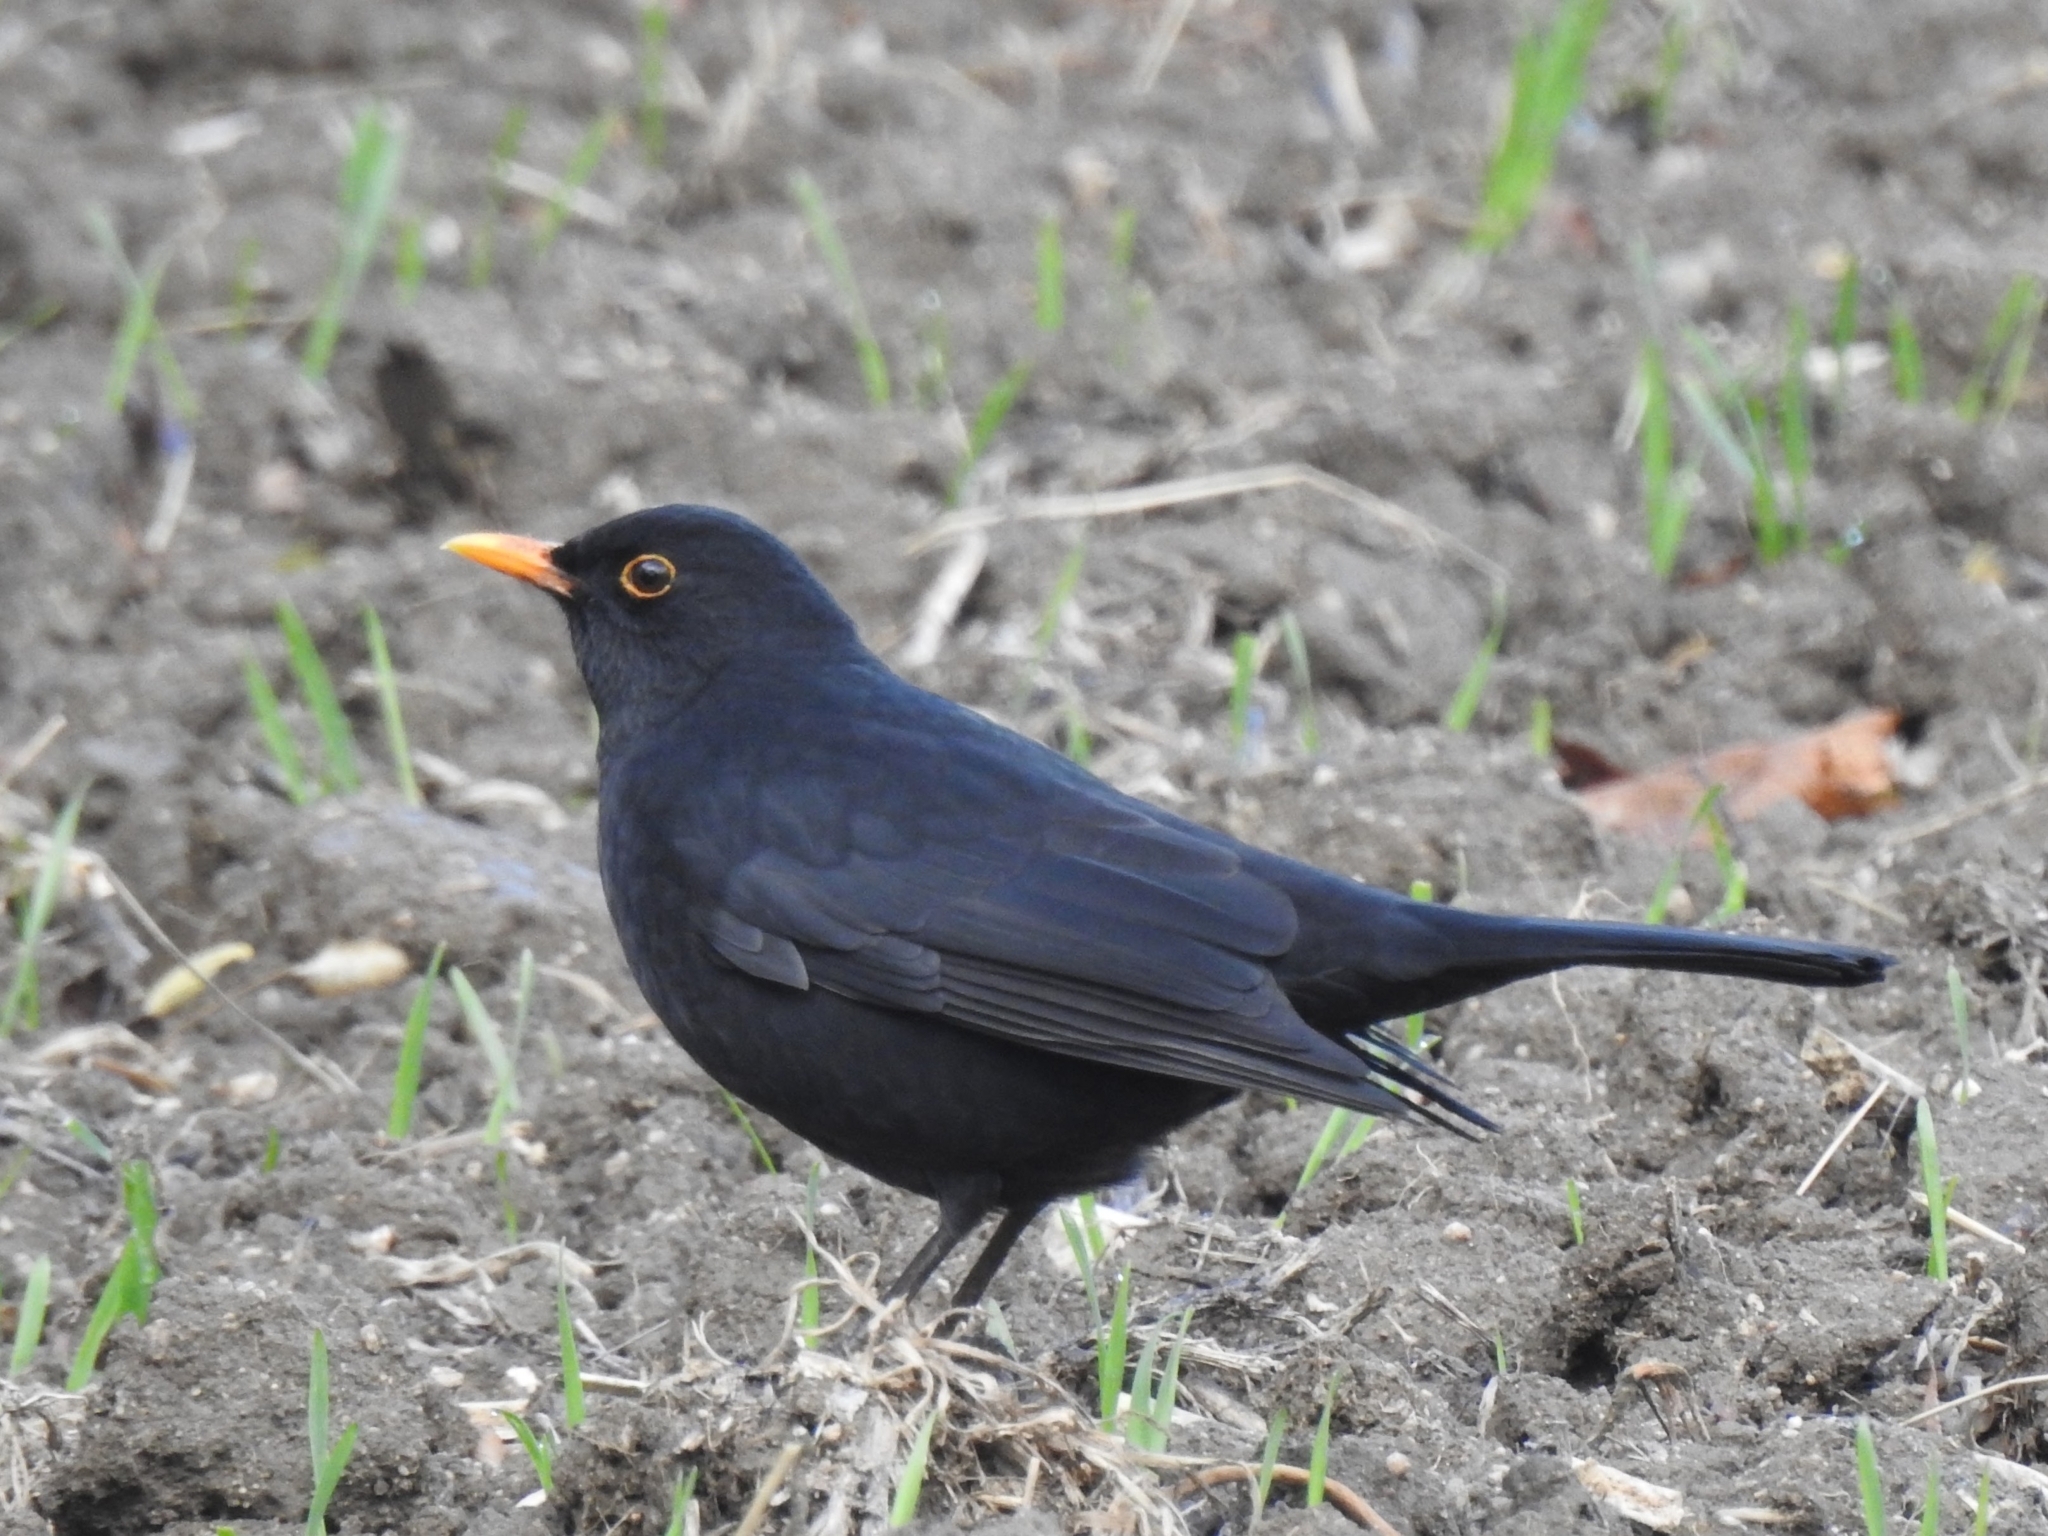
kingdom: Animalia
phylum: Chordata
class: Aves
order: Passeriformes
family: Turdidae
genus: Turdus
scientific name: Turdus merula
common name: Common blackbird
